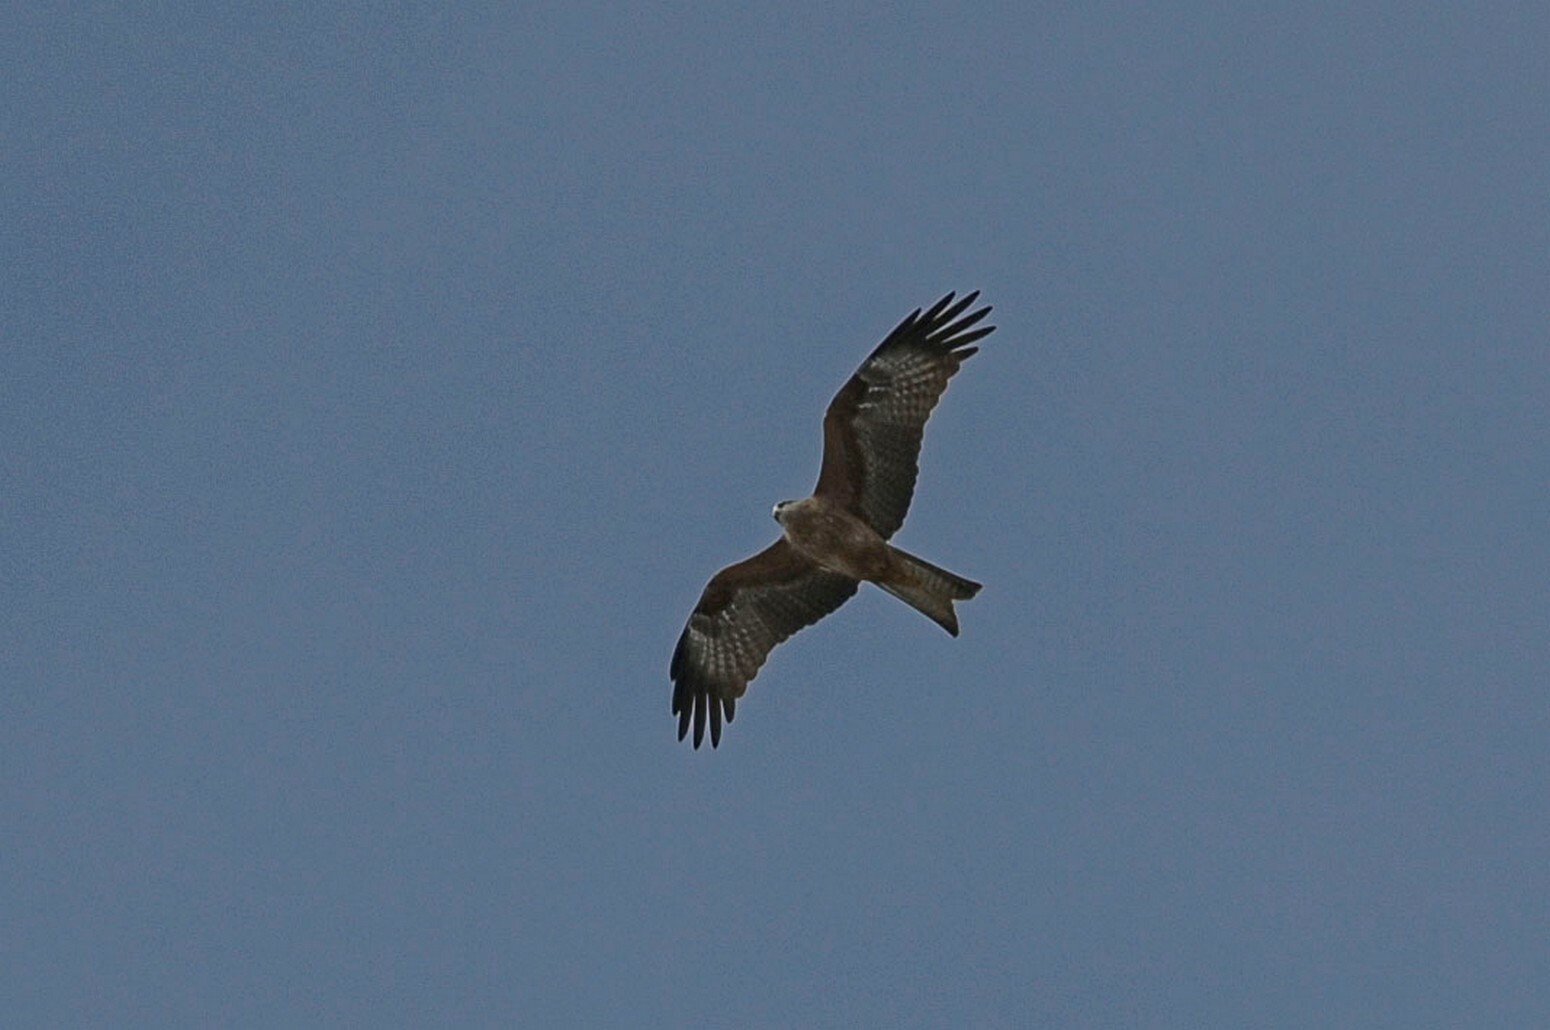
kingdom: Animalia
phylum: Chordata
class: Aves
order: Accipitriformes
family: Accipitridae
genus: Milvus
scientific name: Milvus migrans
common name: Black kite
